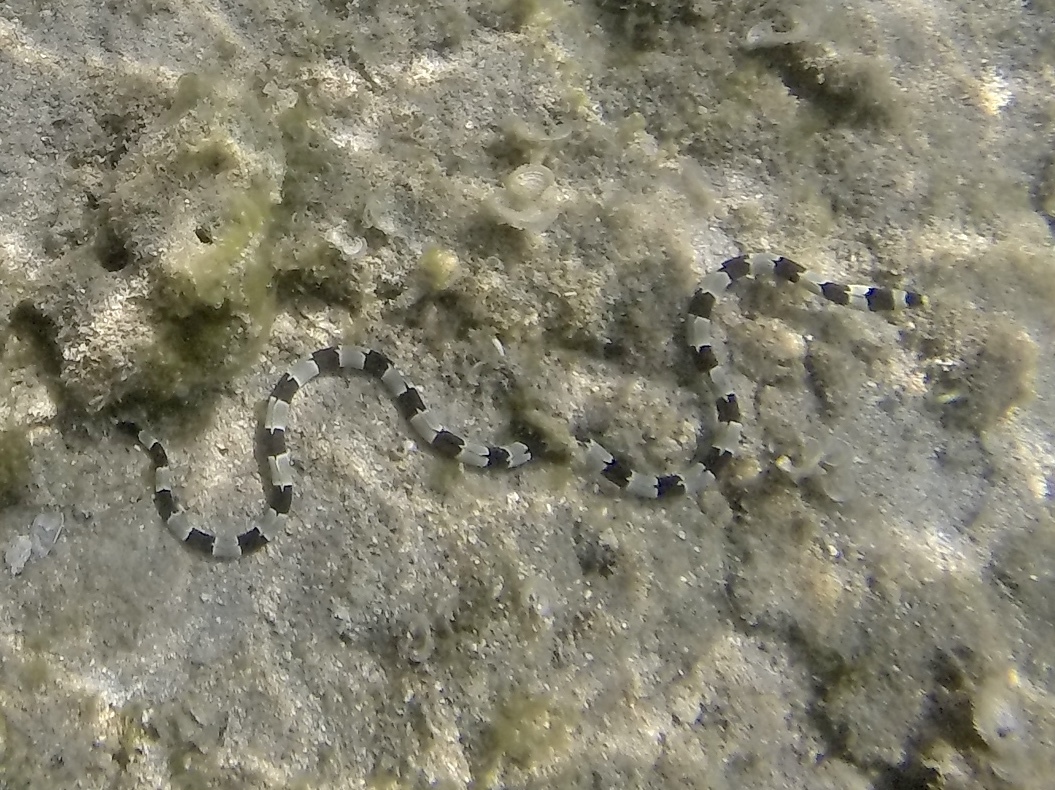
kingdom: Animalia
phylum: Chordata
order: Anguilliformes
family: Ophichthidae
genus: Myrichthys
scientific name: Myrichthys colubrinus
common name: Harlequin snake eel
